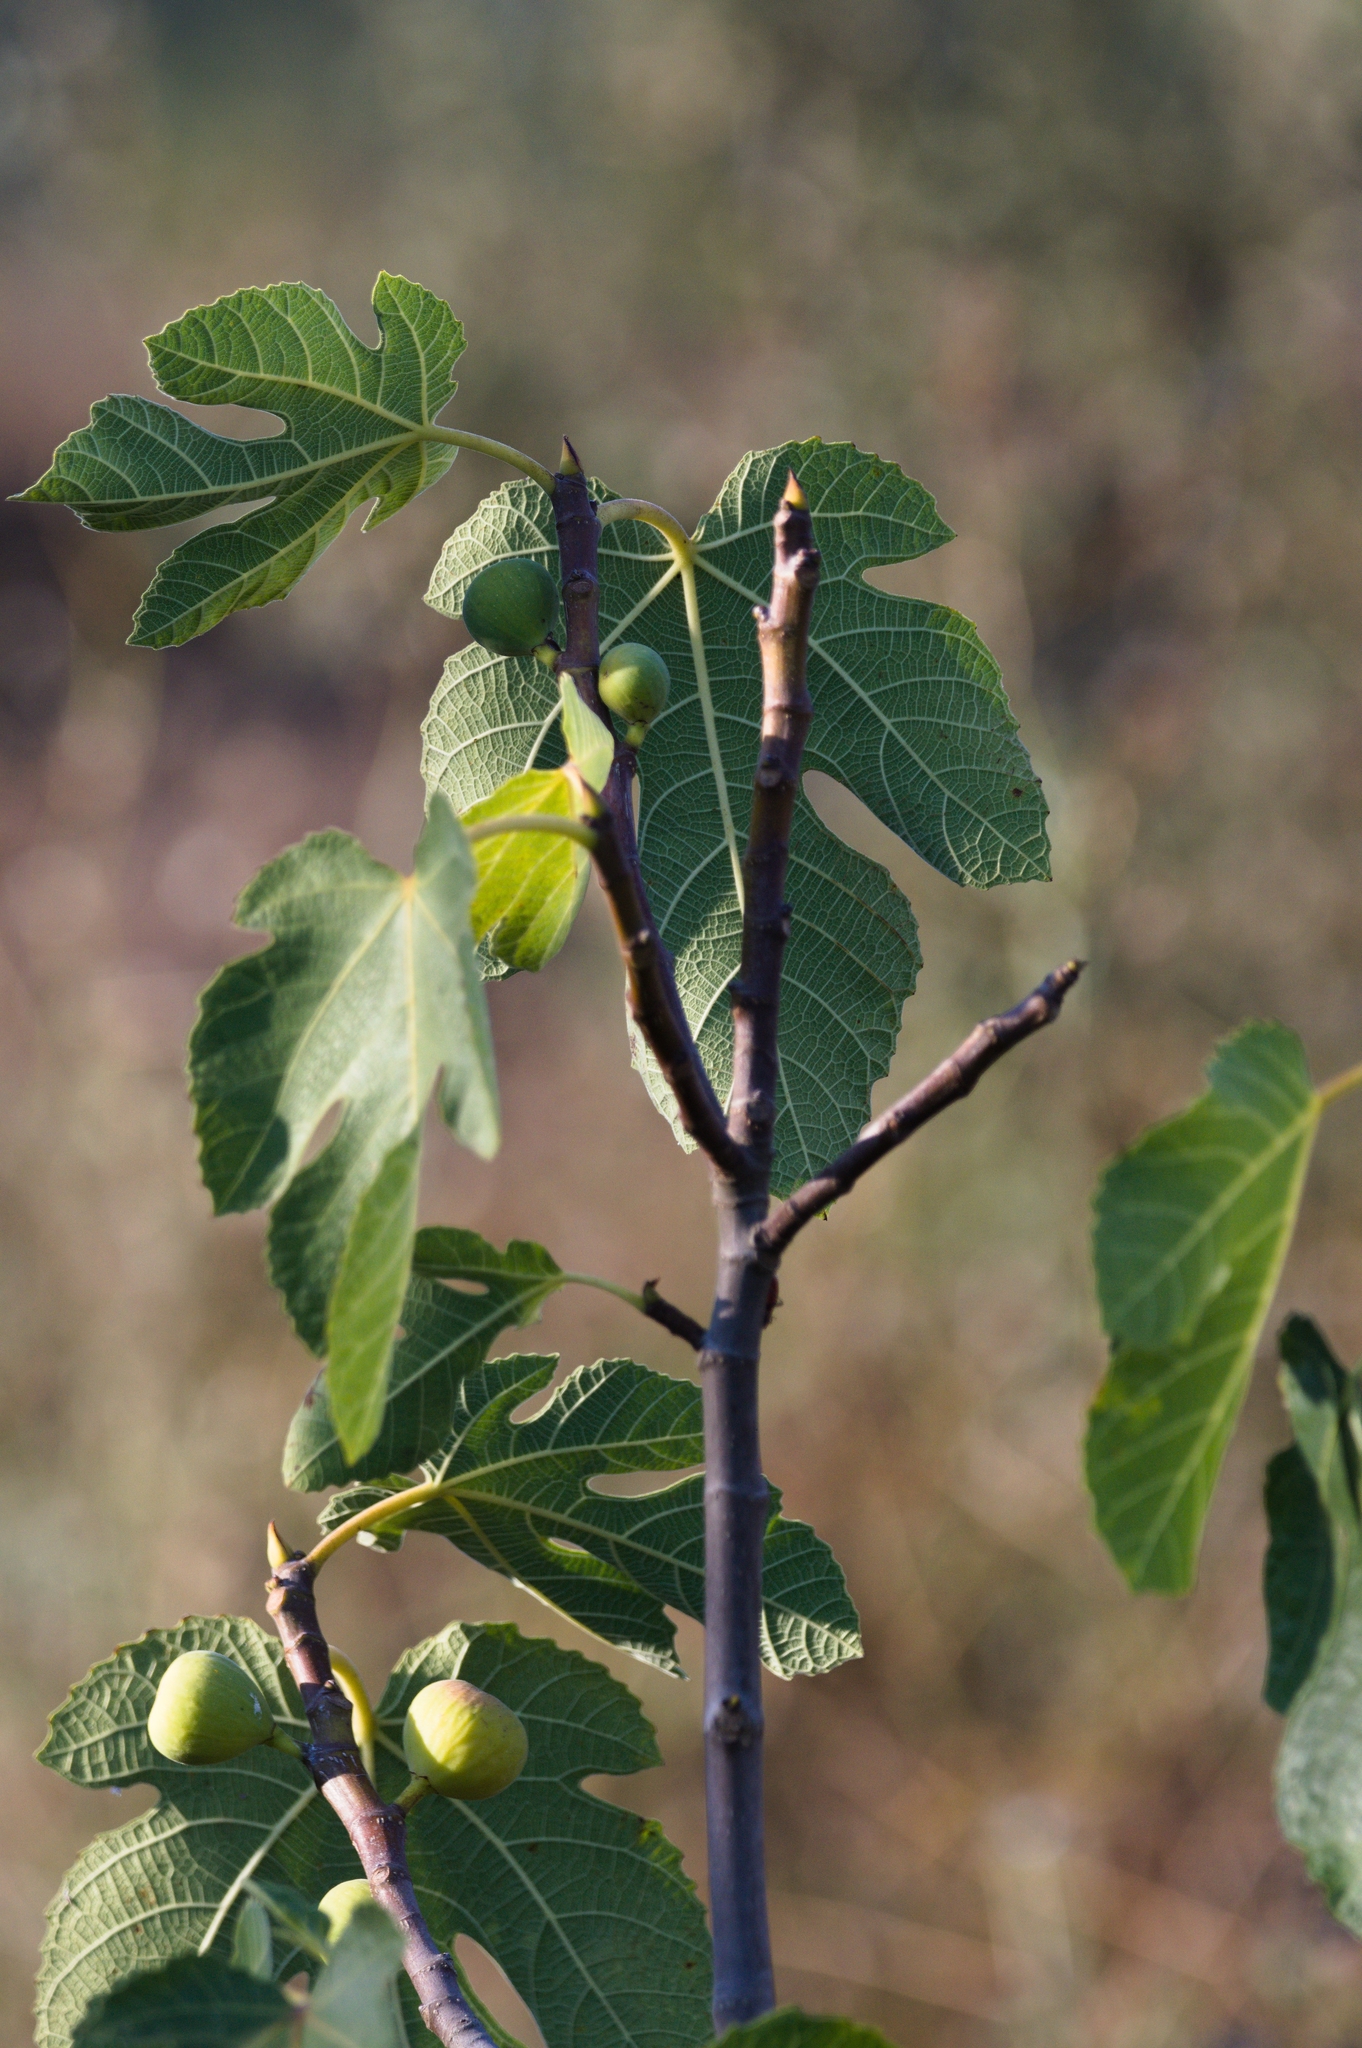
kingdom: Plantae
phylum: Tracheophyta
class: Magnoliopsida
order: Rosales
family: Moraceae
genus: Ficus
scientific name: Ficus carica
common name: Fig
